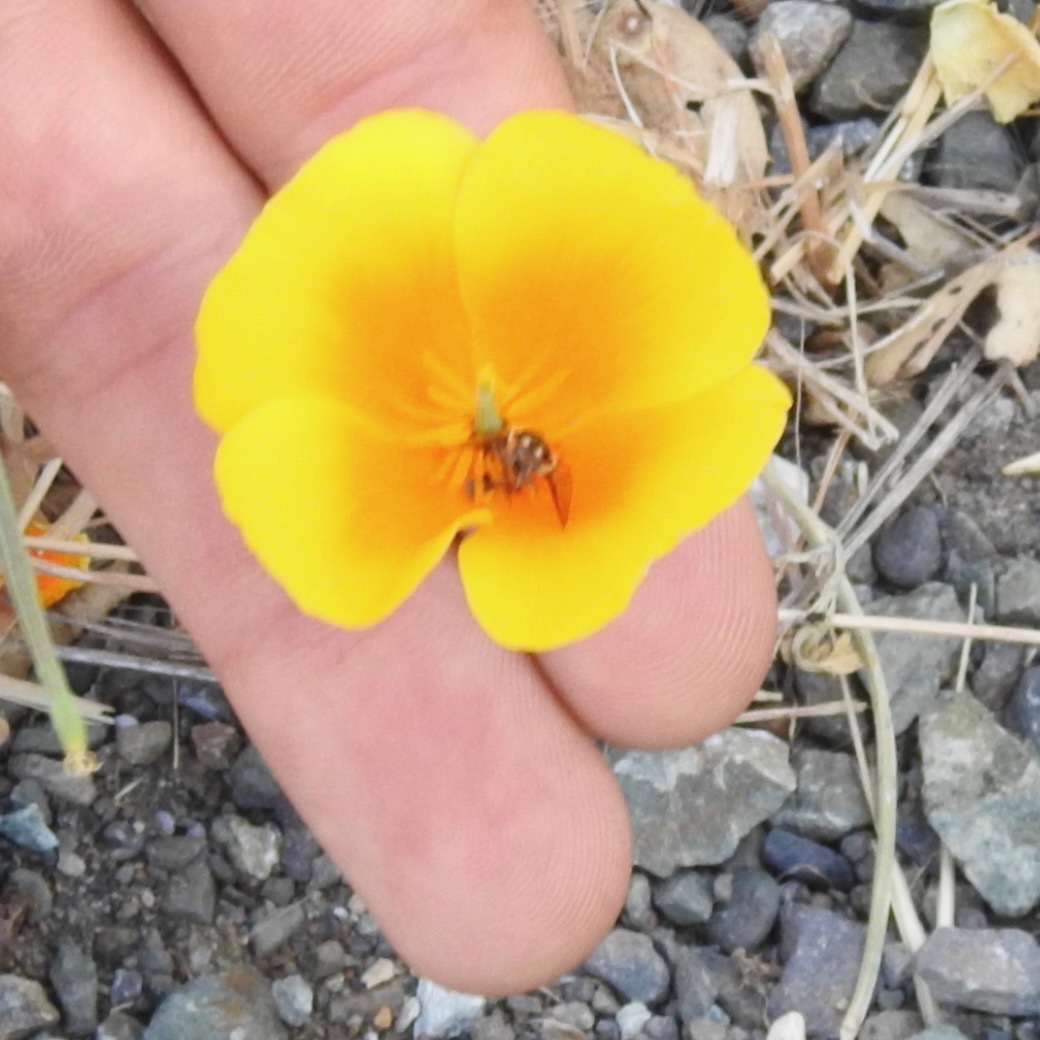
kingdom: Plantae
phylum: Tracheophyta
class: Magnoliopsida
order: Ranunculales
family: Papaveraceae
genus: Eschscholzia
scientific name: Eschscholzia californica
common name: California poppy
